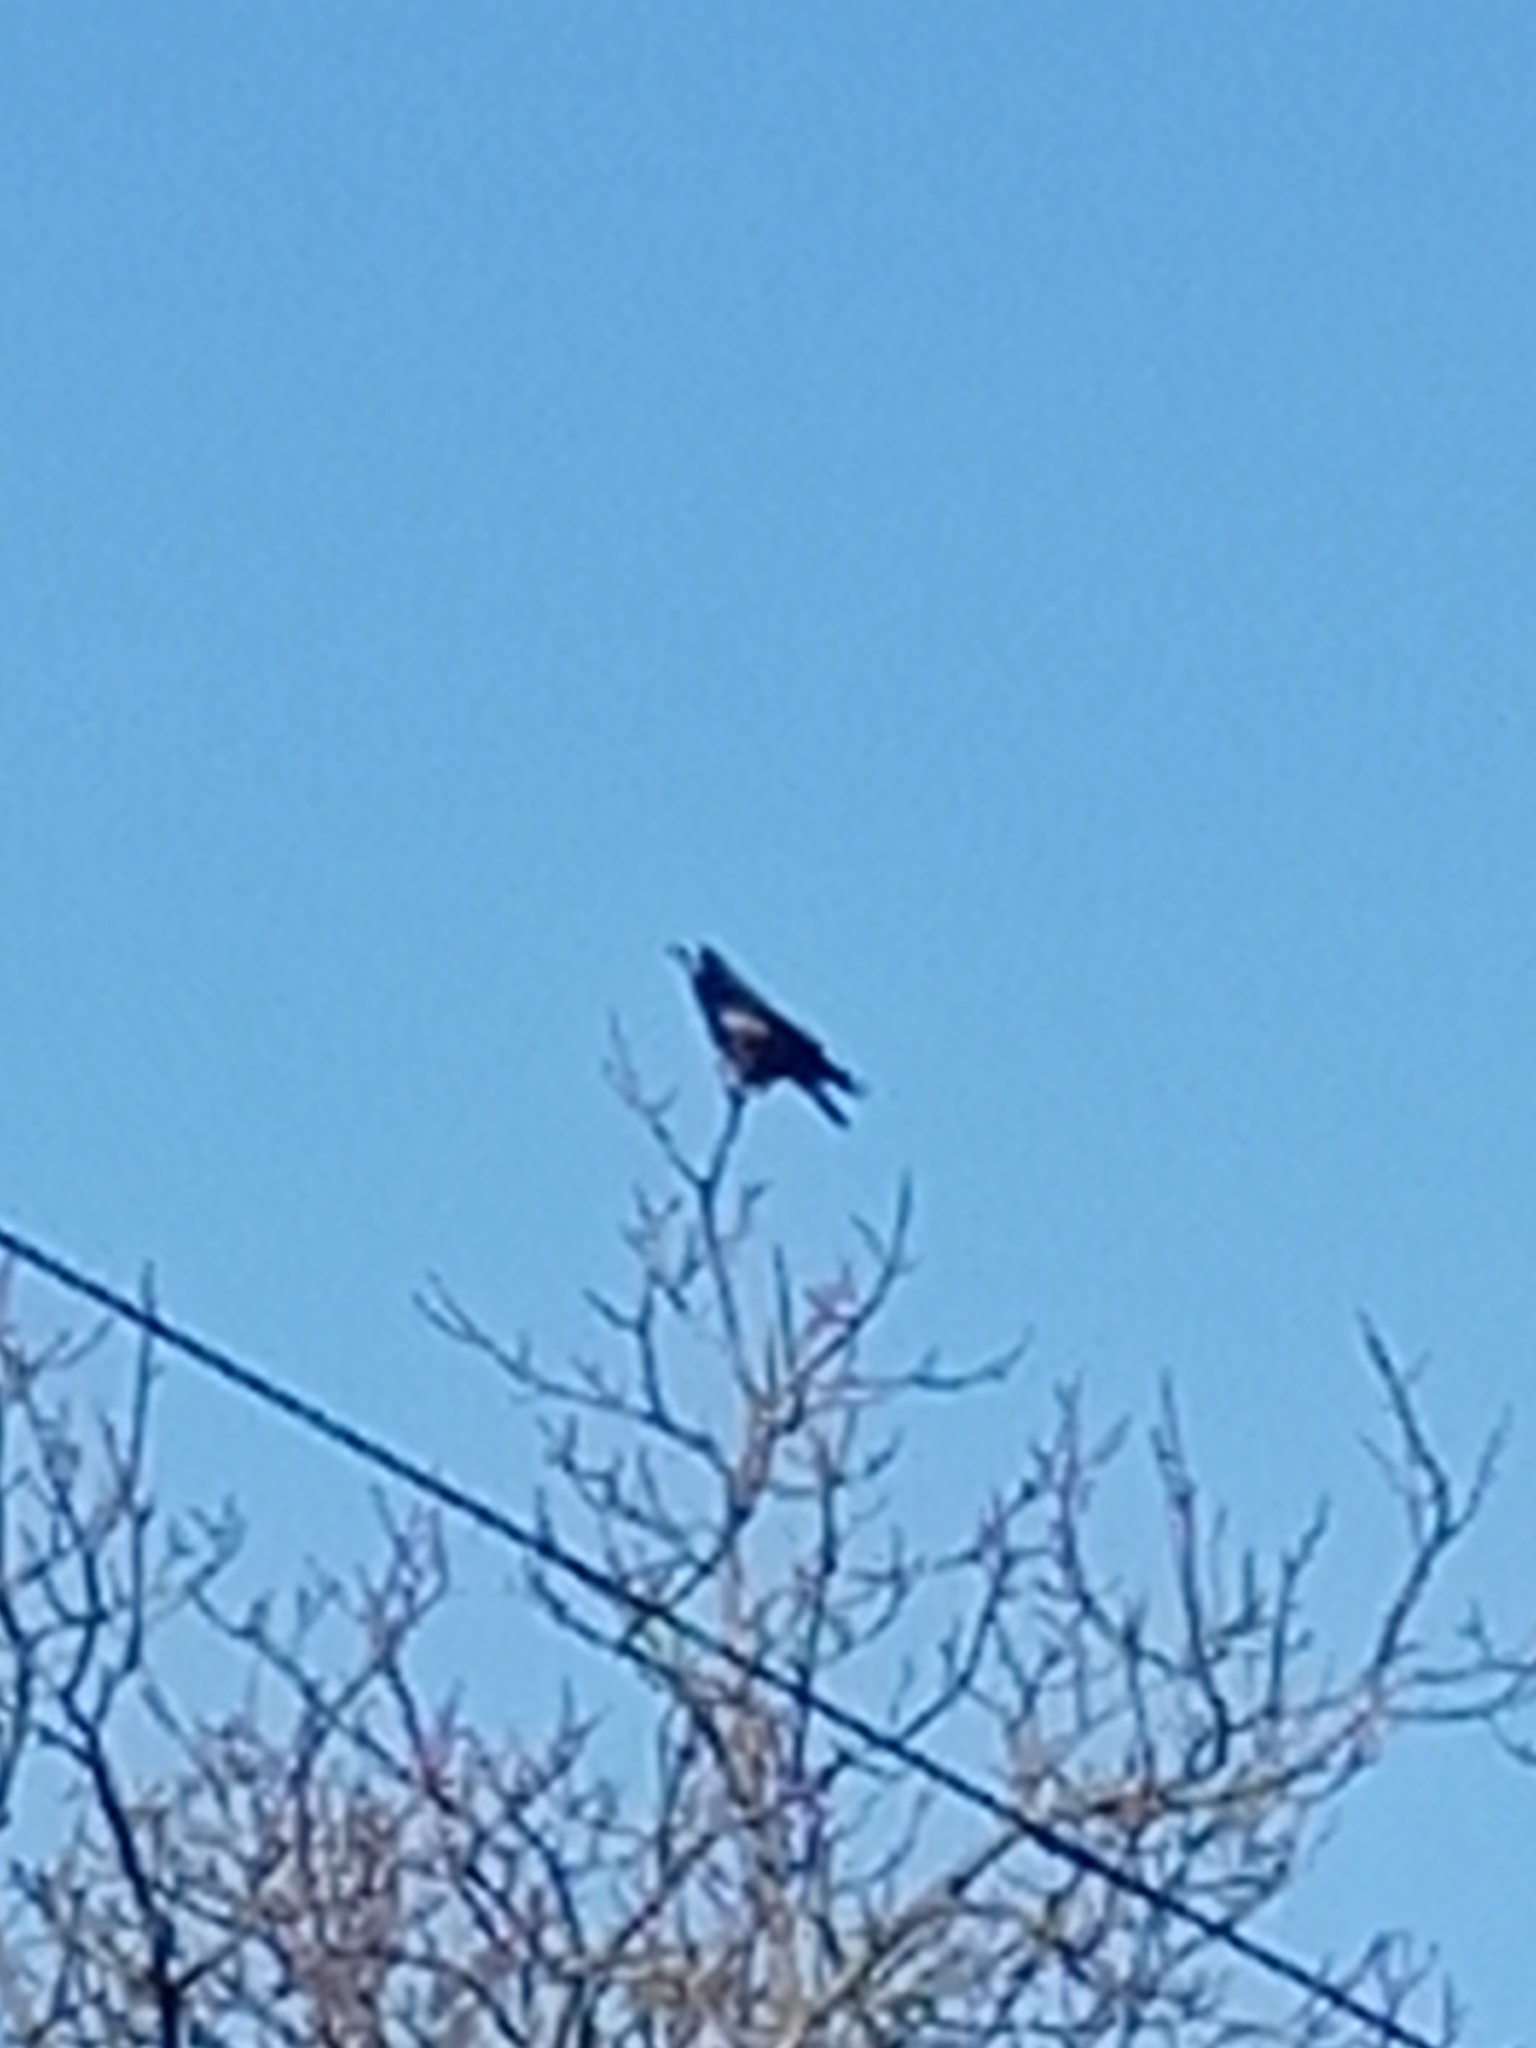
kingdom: Animalia
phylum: Chordata
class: Aves
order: Passeriformes
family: Corvidae
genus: Corvus
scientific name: Corvus frugilegus
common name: Rook
